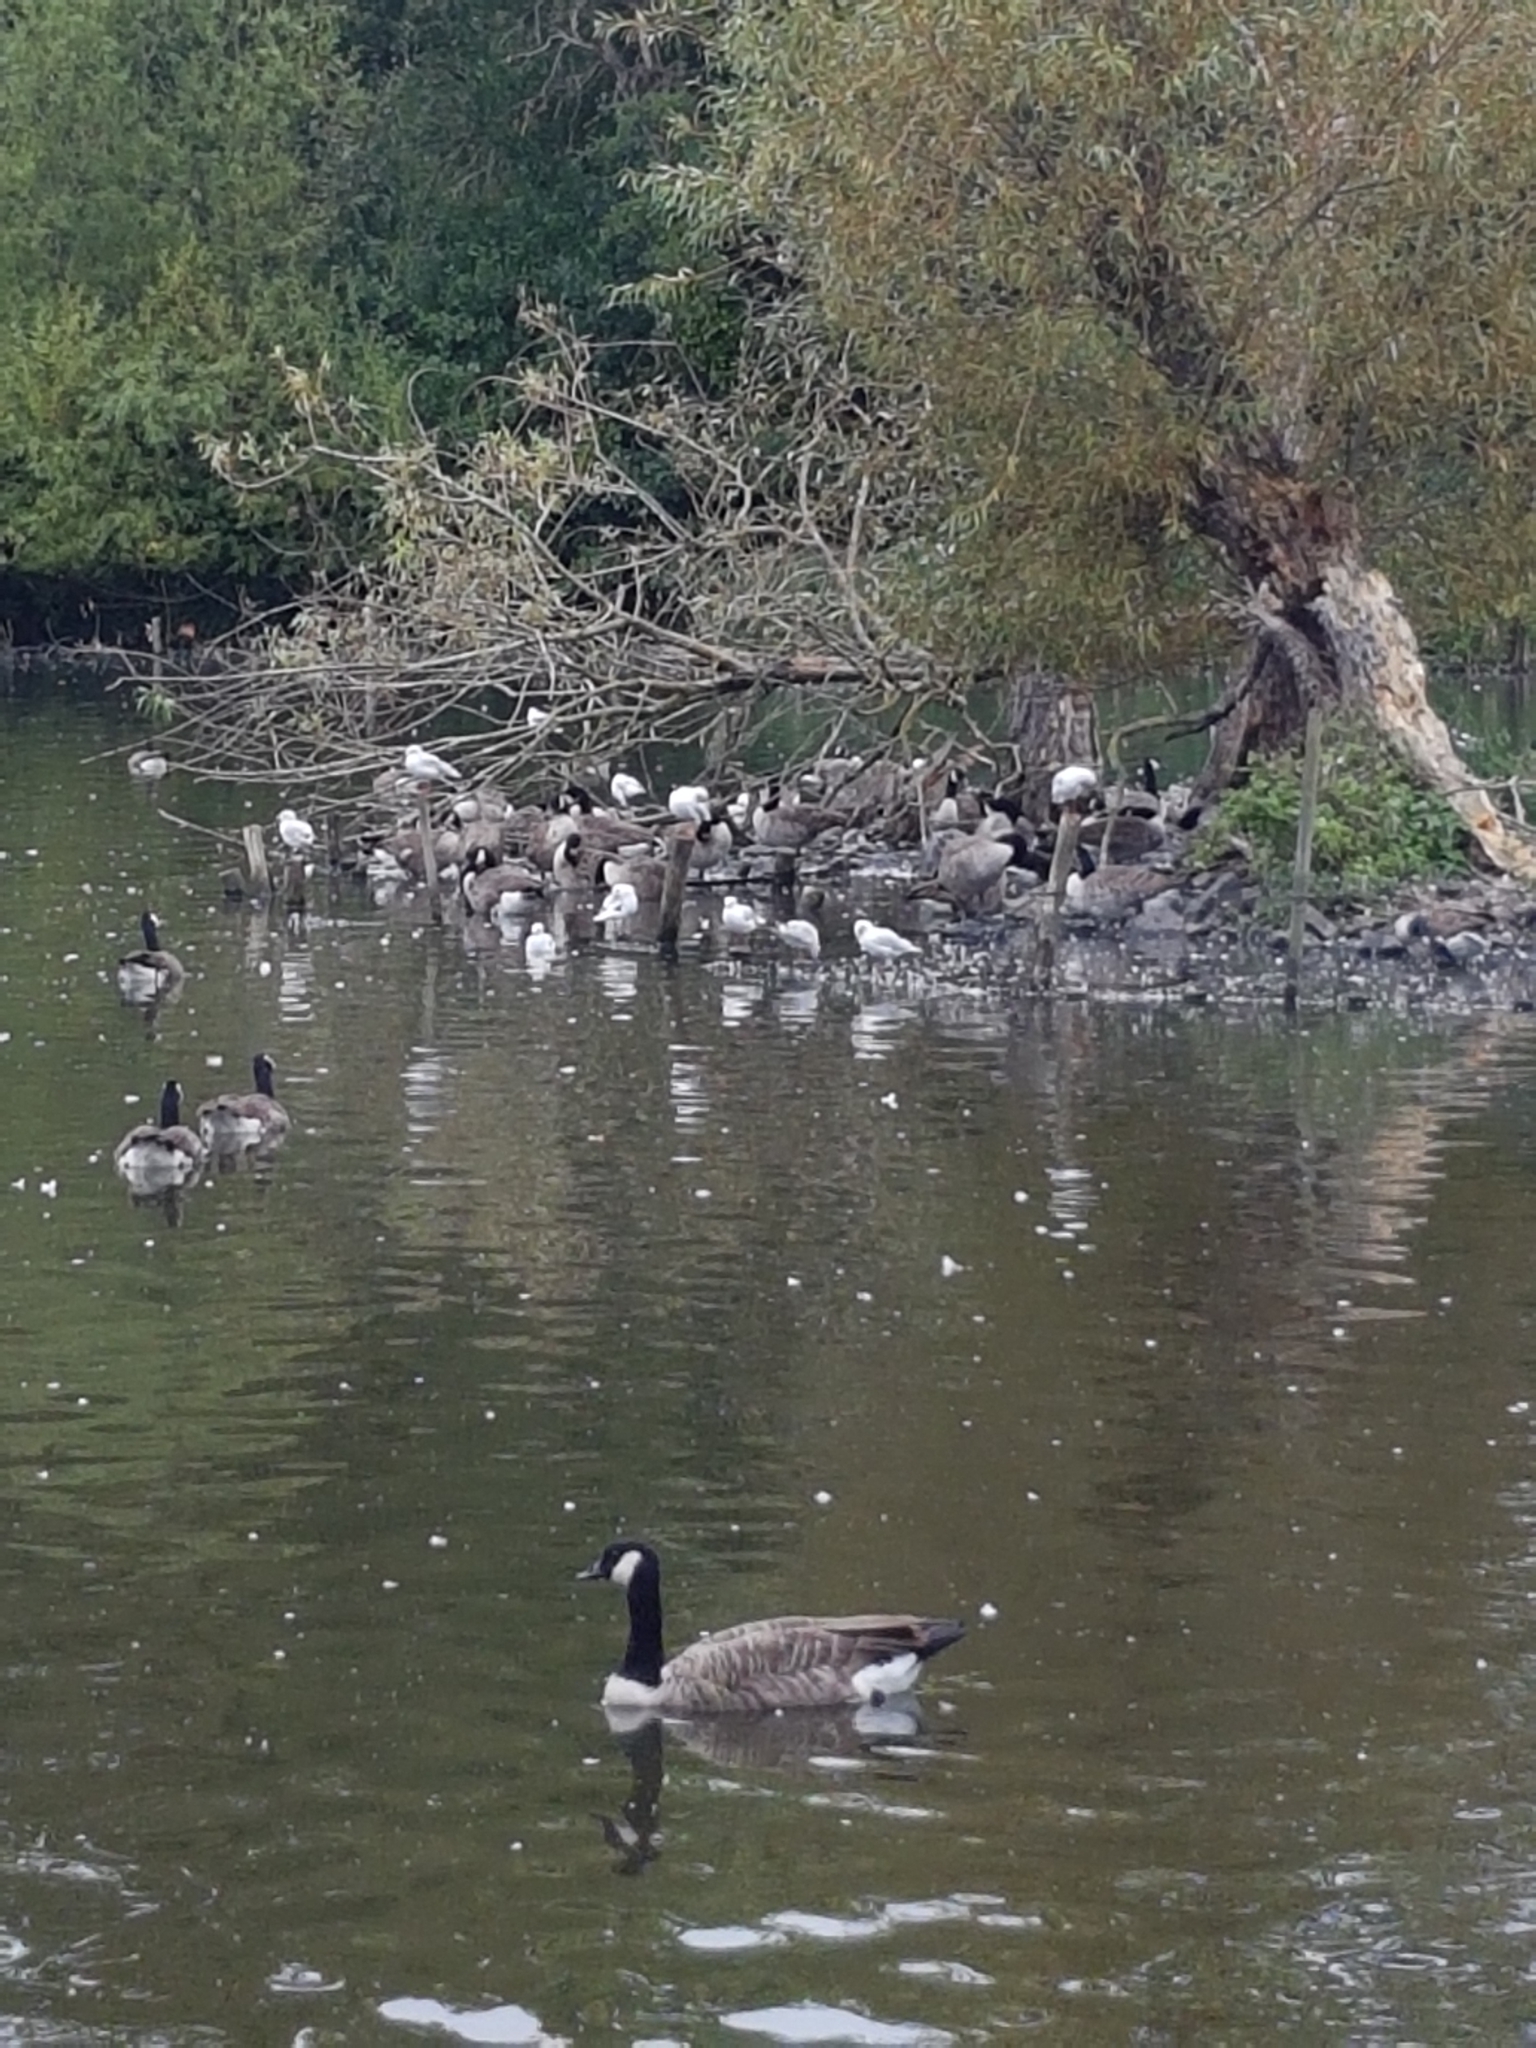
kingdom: Animalia
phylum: Chordata
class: Aves
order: Anseriformes
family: Anatidae
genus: Branta
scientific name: Branta canadensis
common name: Canada goose
